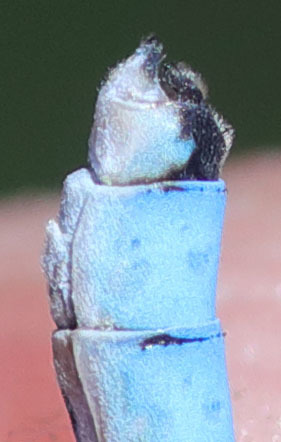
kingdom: Animalia
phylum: Arthropoda
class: Insecta
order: Odonata
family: Coenagrionidae
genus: Enallagma
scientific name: Enallagma annexum
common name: Northern bluet
